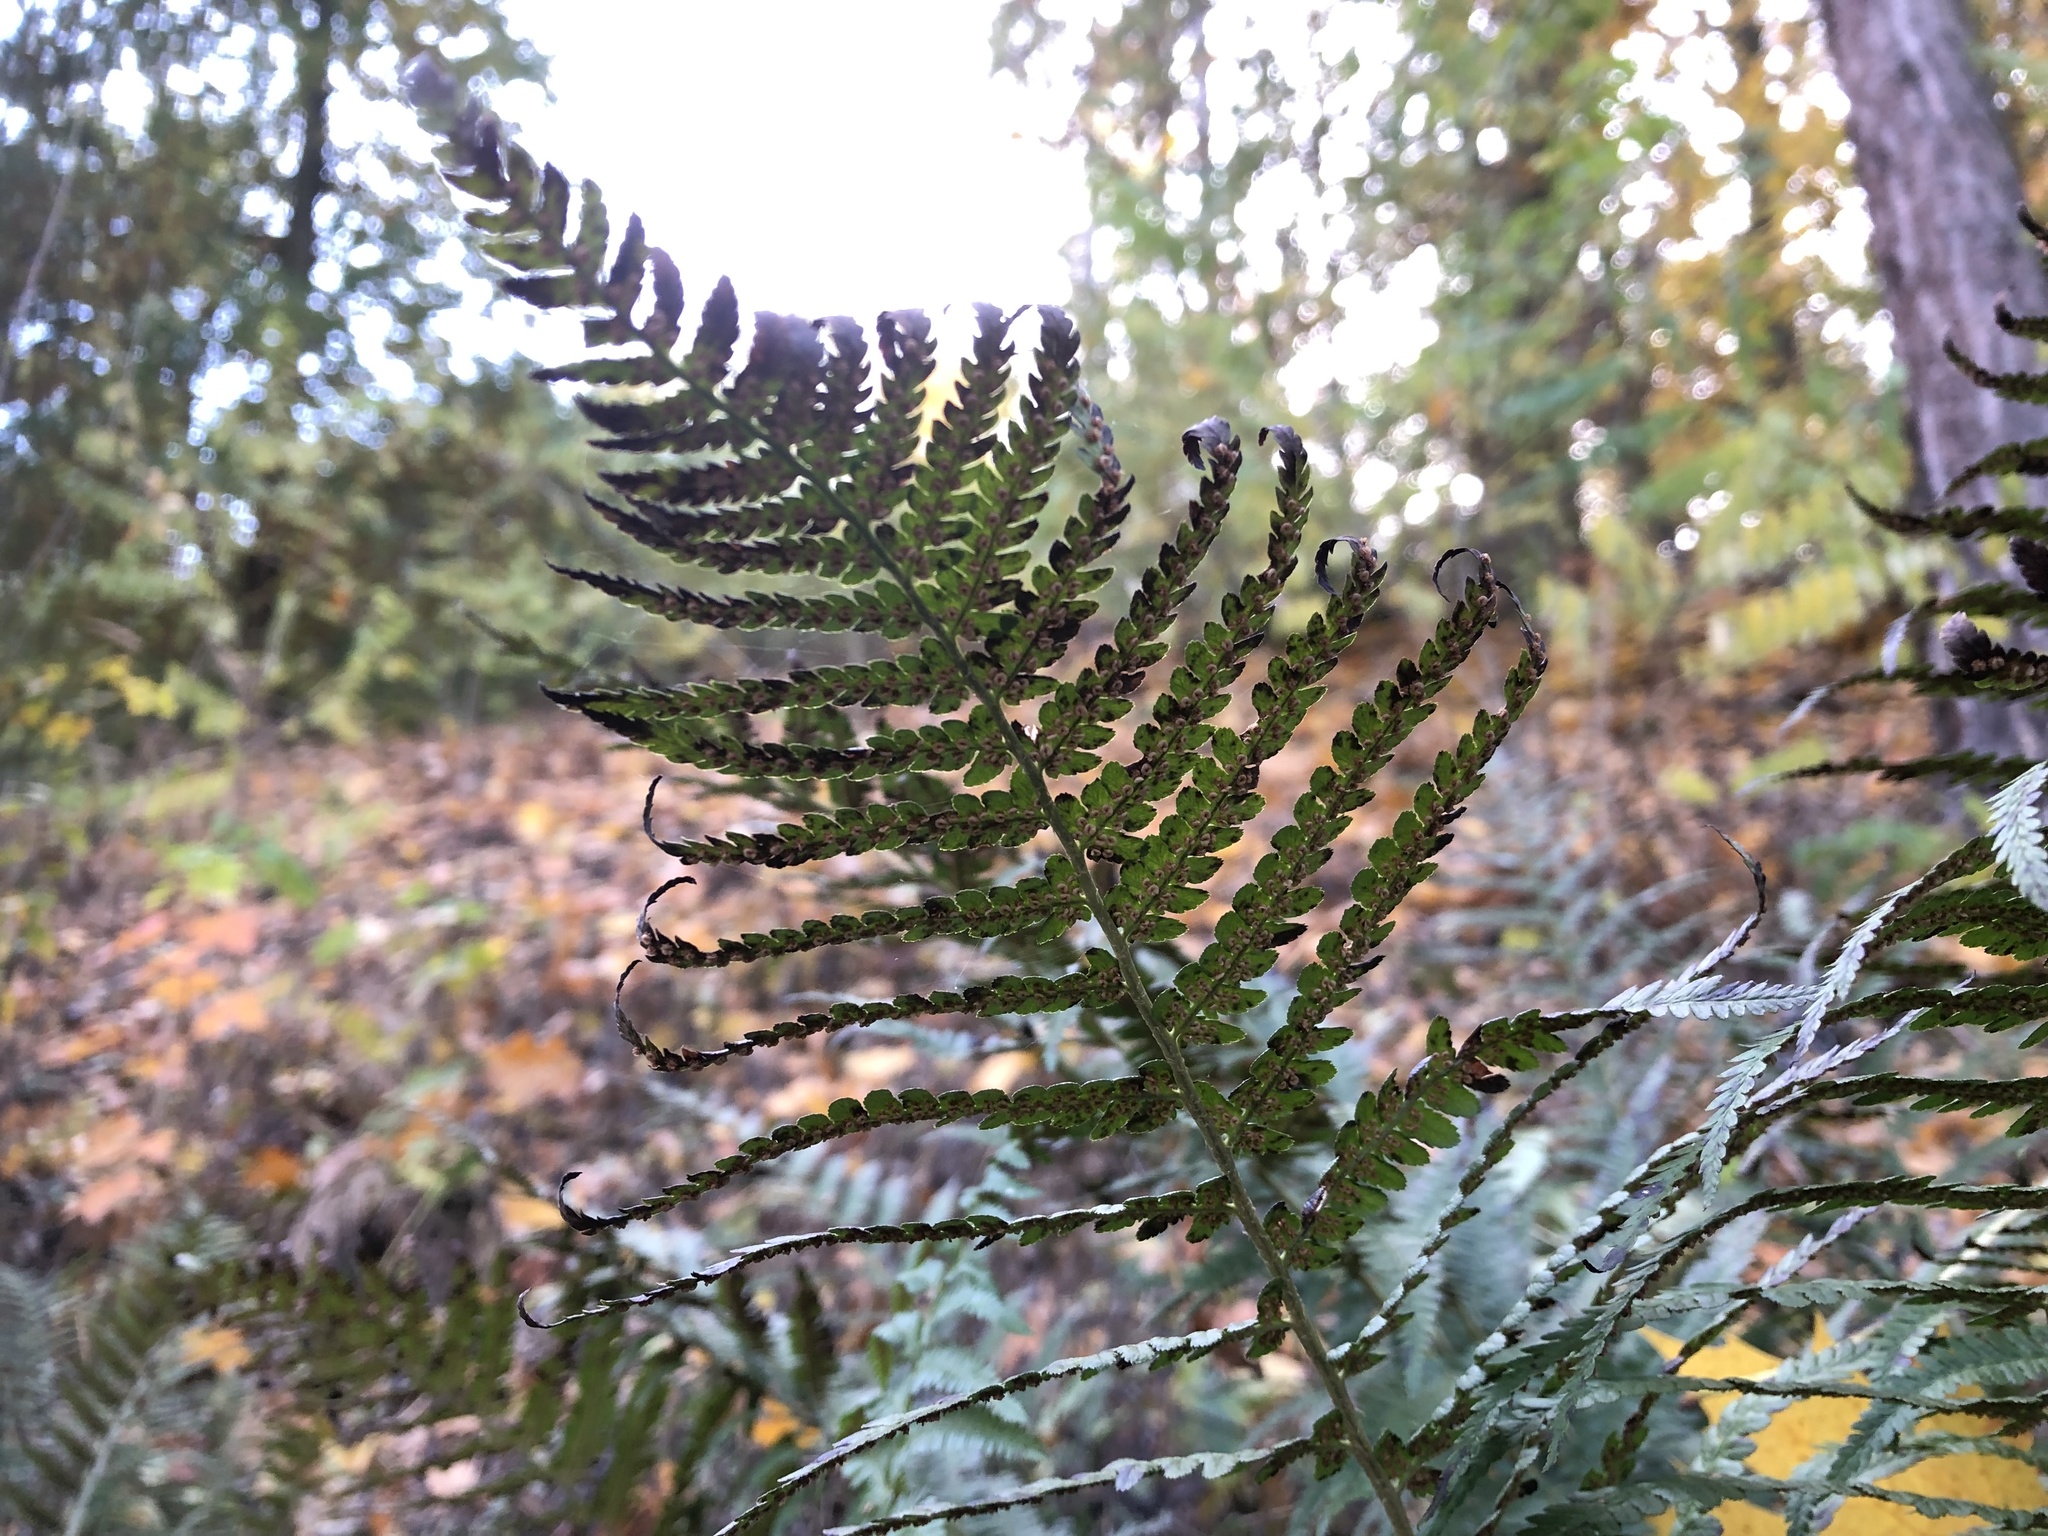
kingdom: Plantae
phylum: Tracheophyta
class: Polypodiopsida
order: Polypodiales
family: Dryopteridaceae
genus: Dryopteris
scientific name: Dryopteris filix-mas
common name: Male fern
